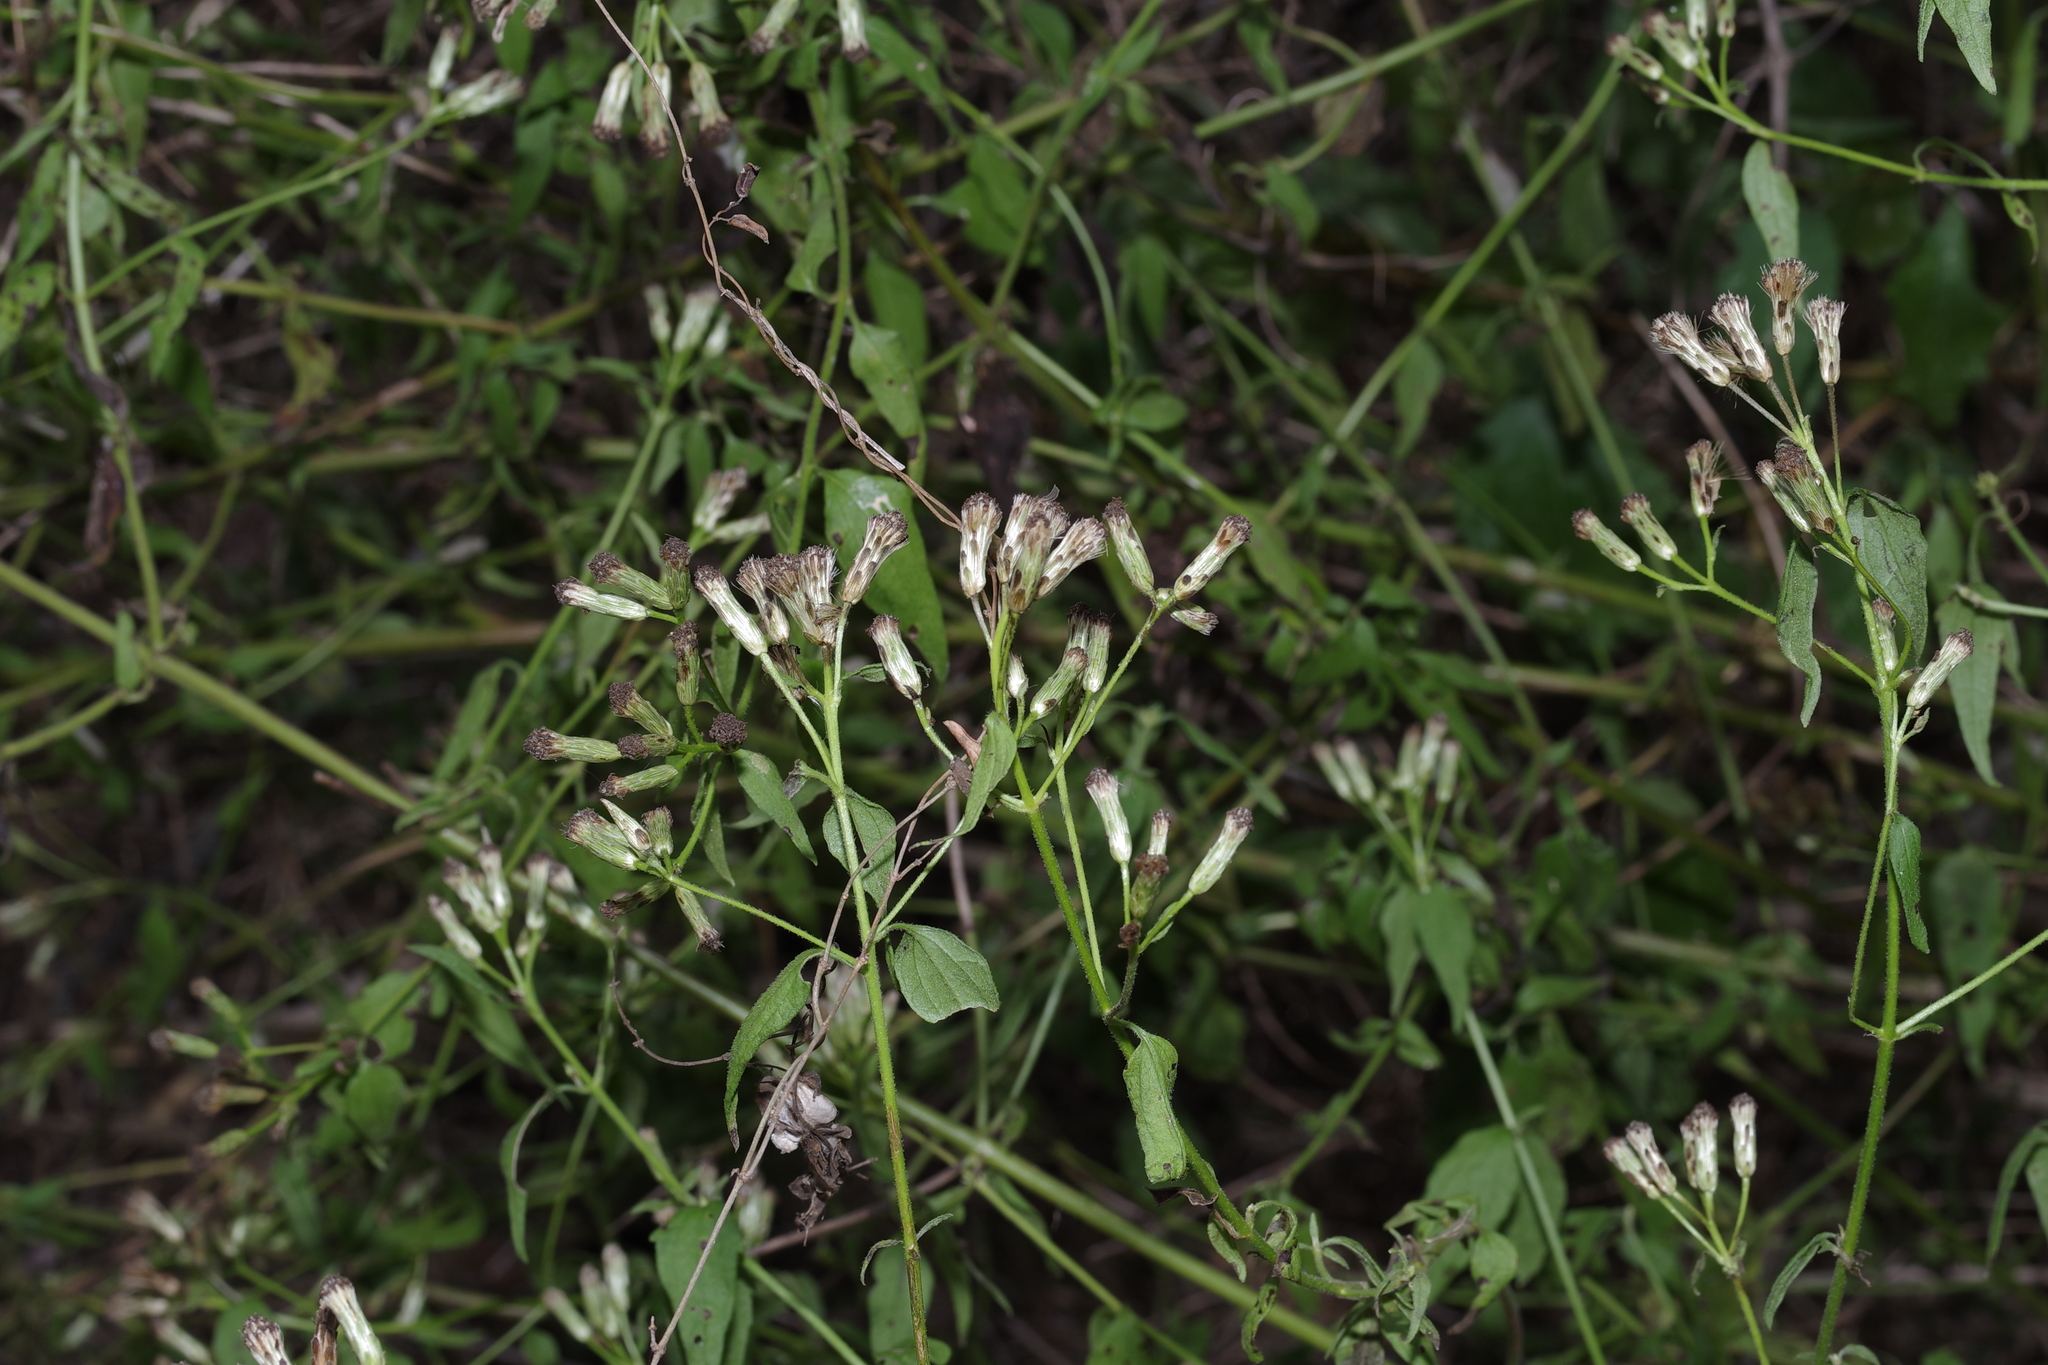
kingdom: Plantae
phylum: Tracheophyta
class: Magnoliopsida
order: Asterales
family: Asteraceae
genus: Chromolaena
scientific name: Chromolaena odorata
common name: Siamweed
